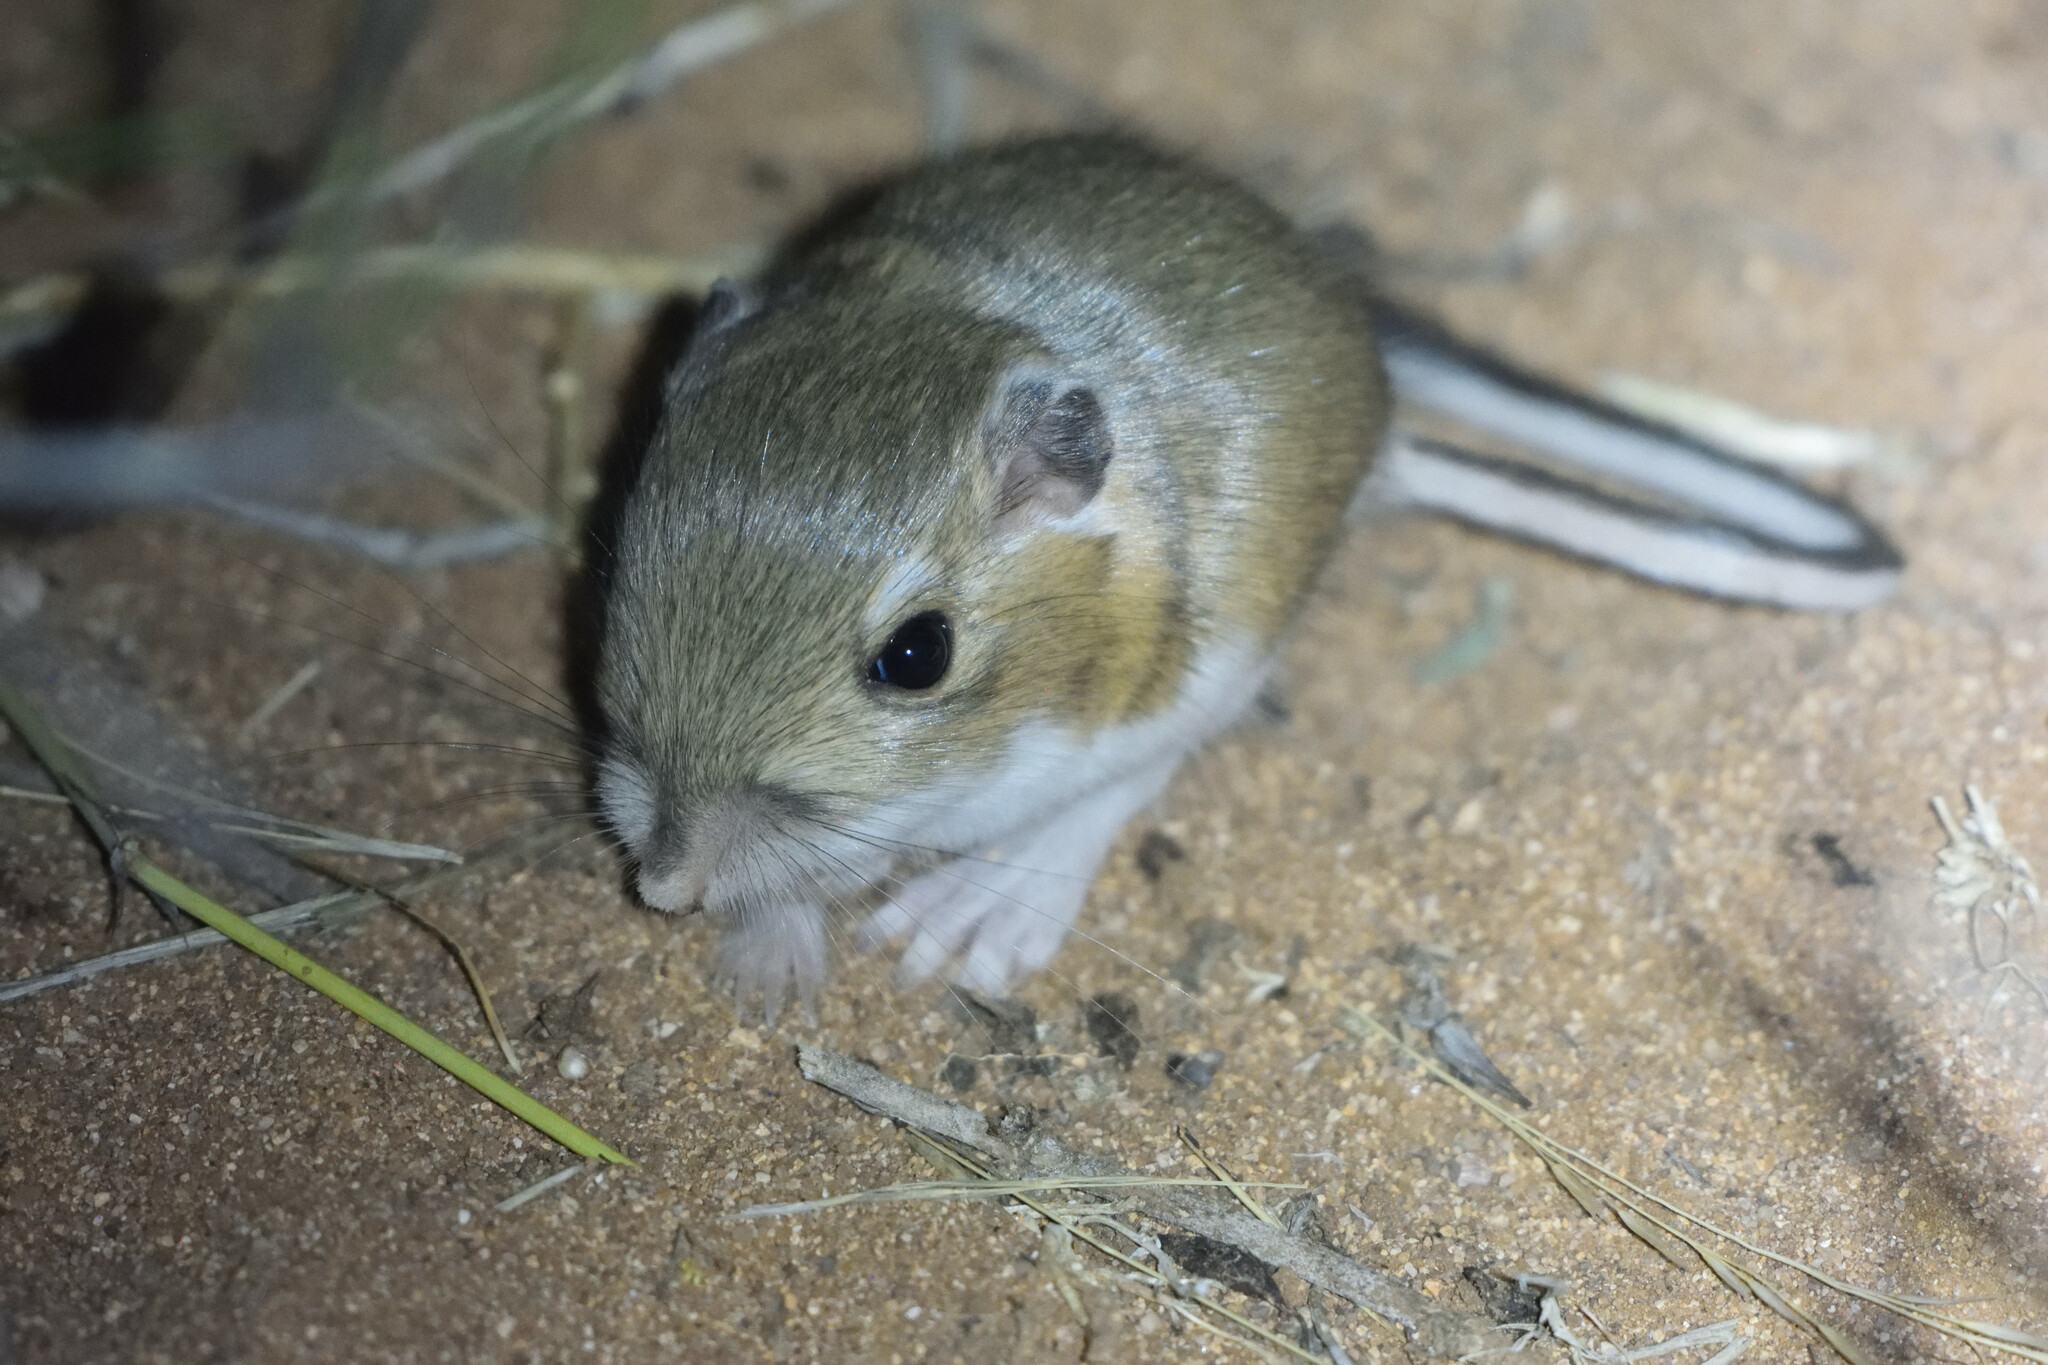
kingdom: Animalia
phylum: Chordata
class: Mammalia
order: Rodentia
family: Heteromyidae
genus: Dipodomys
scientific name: Dipodomys ordii
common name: Ord's kangaroo rat
